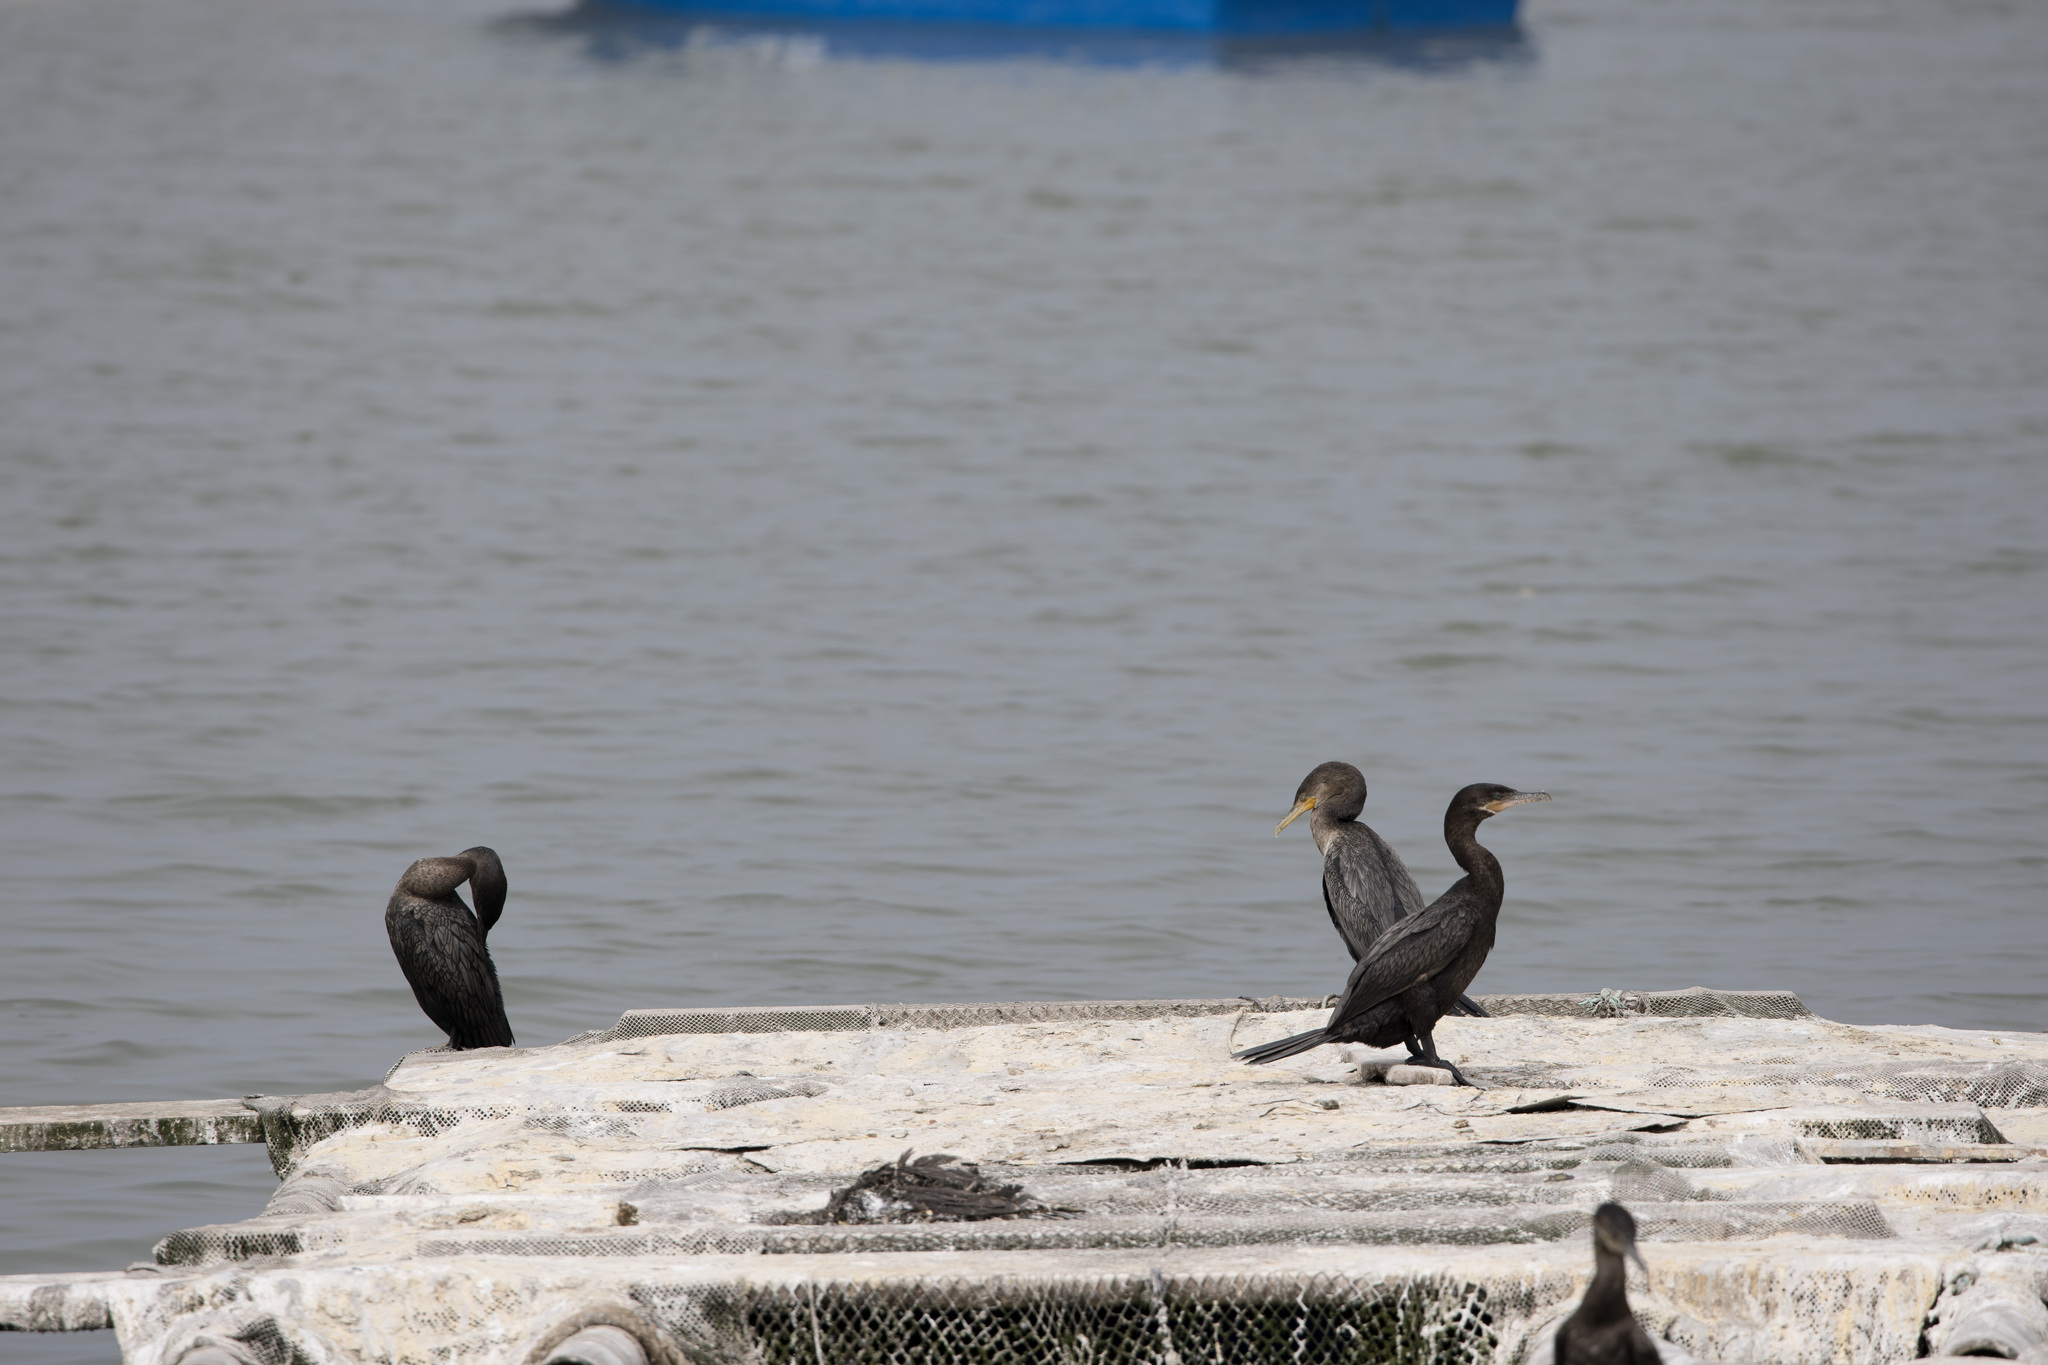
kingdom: Animalia
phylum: Chordata
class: Aves
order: Suliformes
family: Phalacrocoracidae
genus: Phalacrocorax
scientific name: Phalacrocorax brasilianus
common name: Neotropic cormorant
